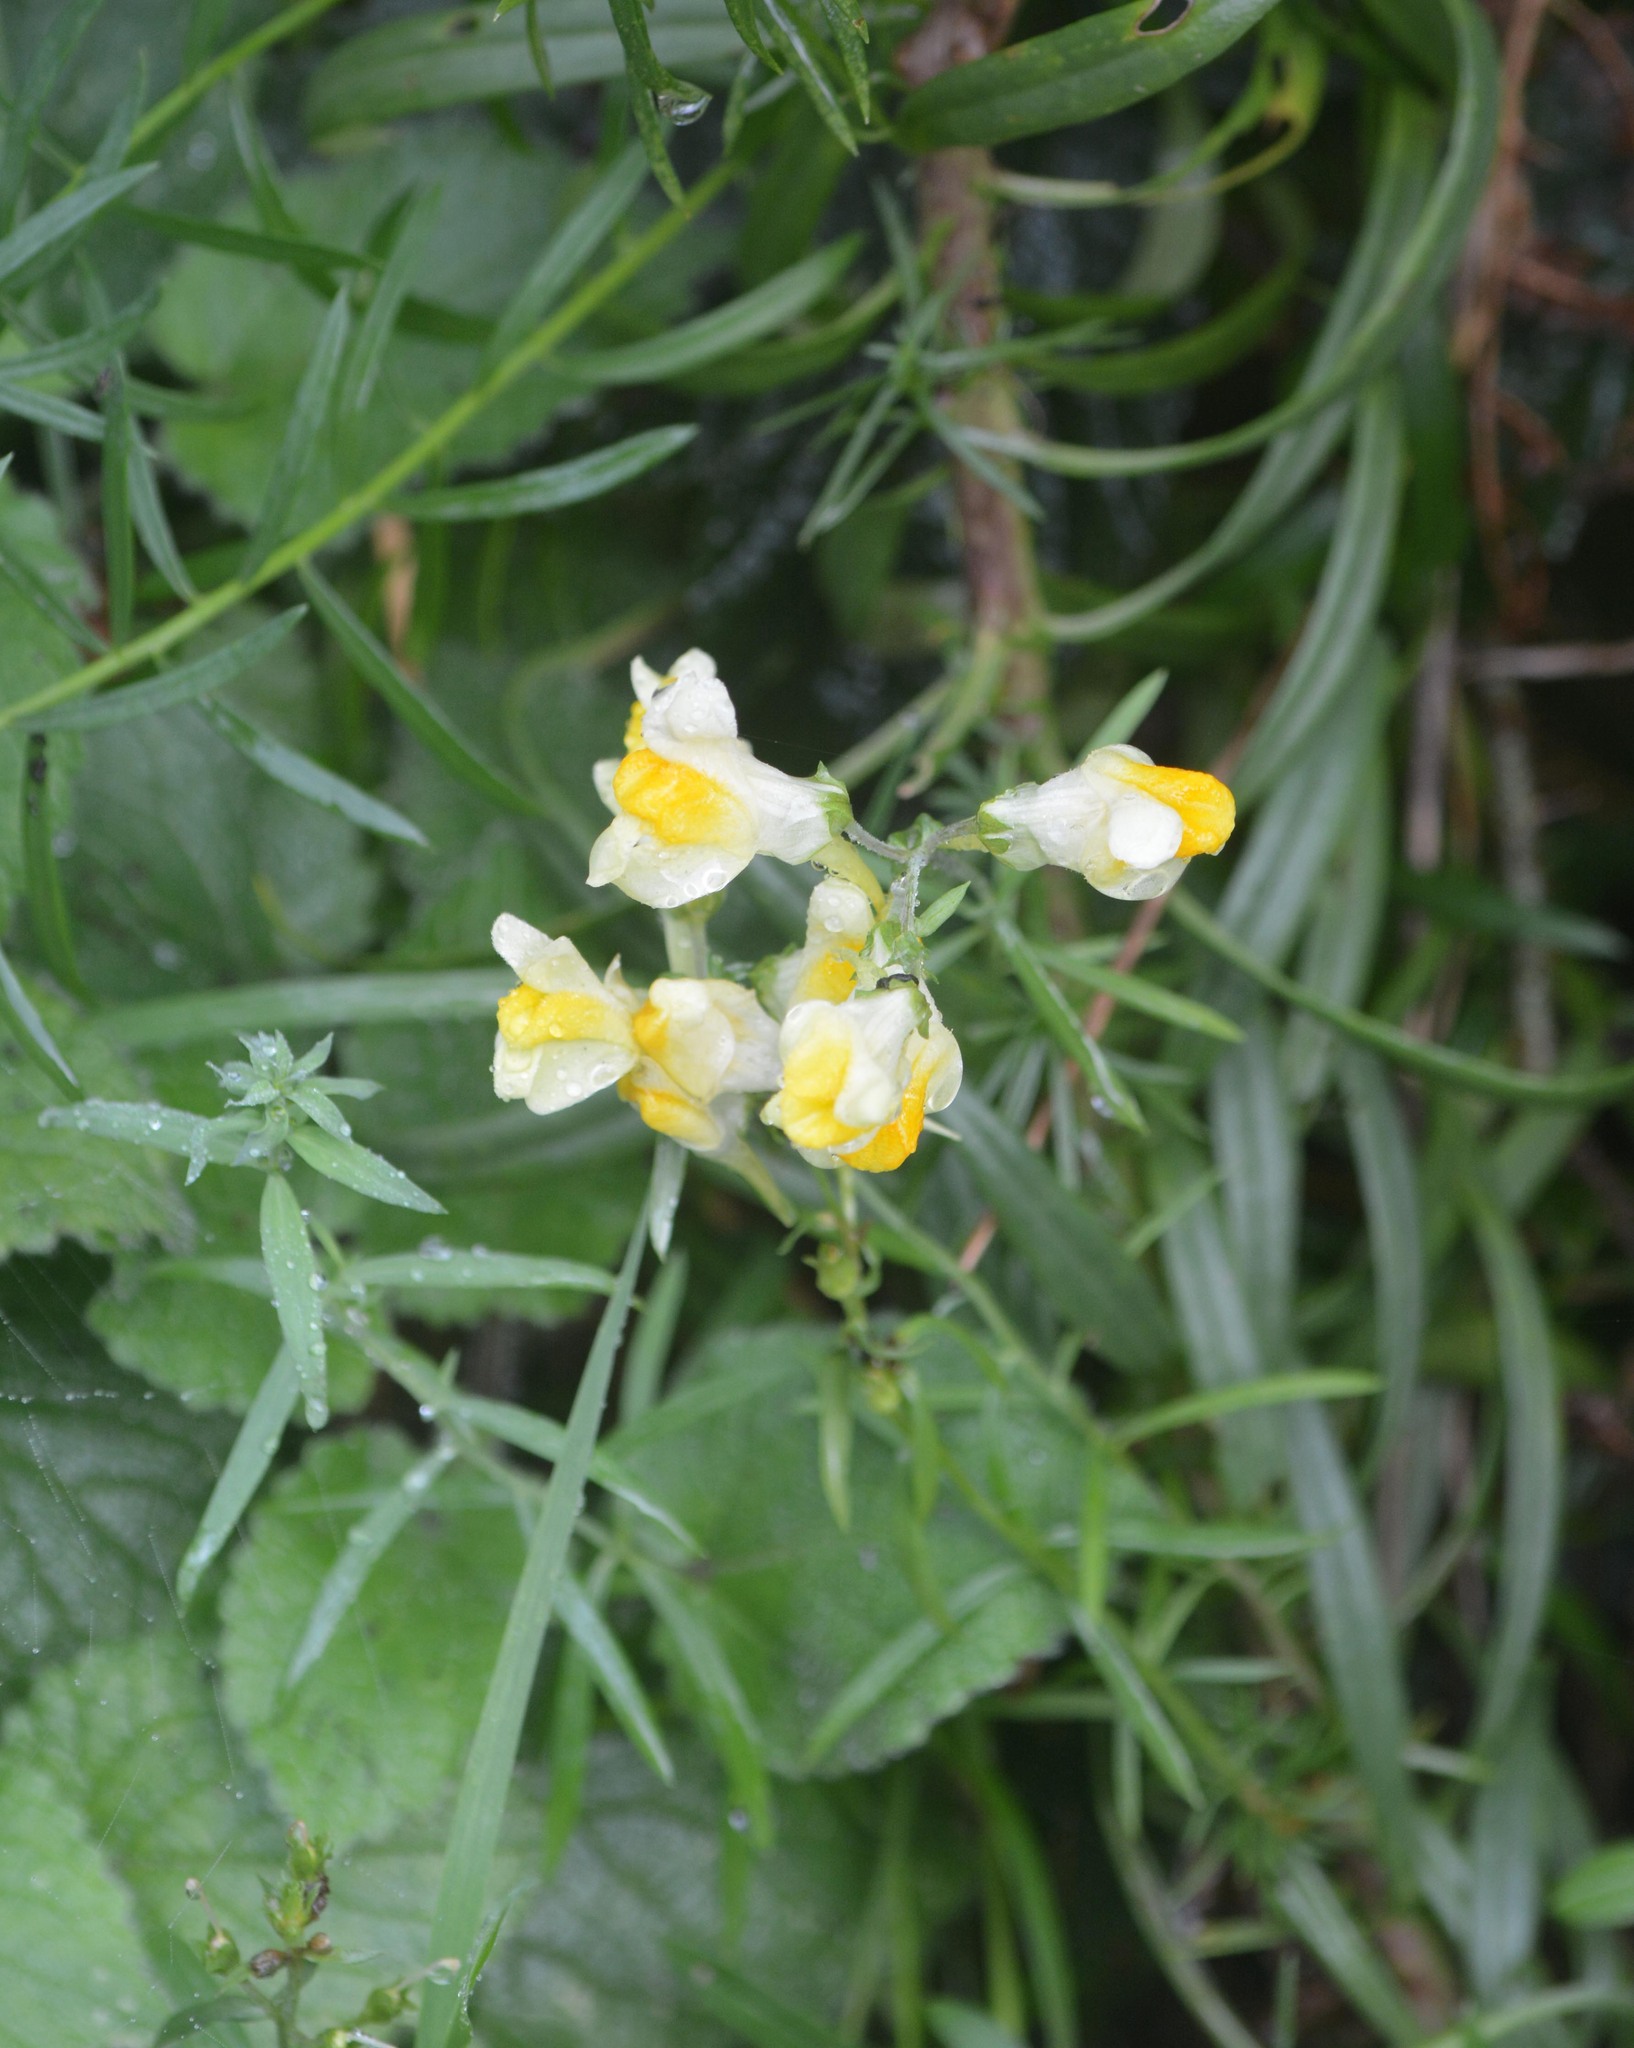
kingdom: Plantae
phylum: Tracheophyta
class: Magnoliopsida
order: Lamiales
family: Plantaginaceae
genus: Linaria
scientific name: Linaria vulgaris
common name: Butter and eggs
